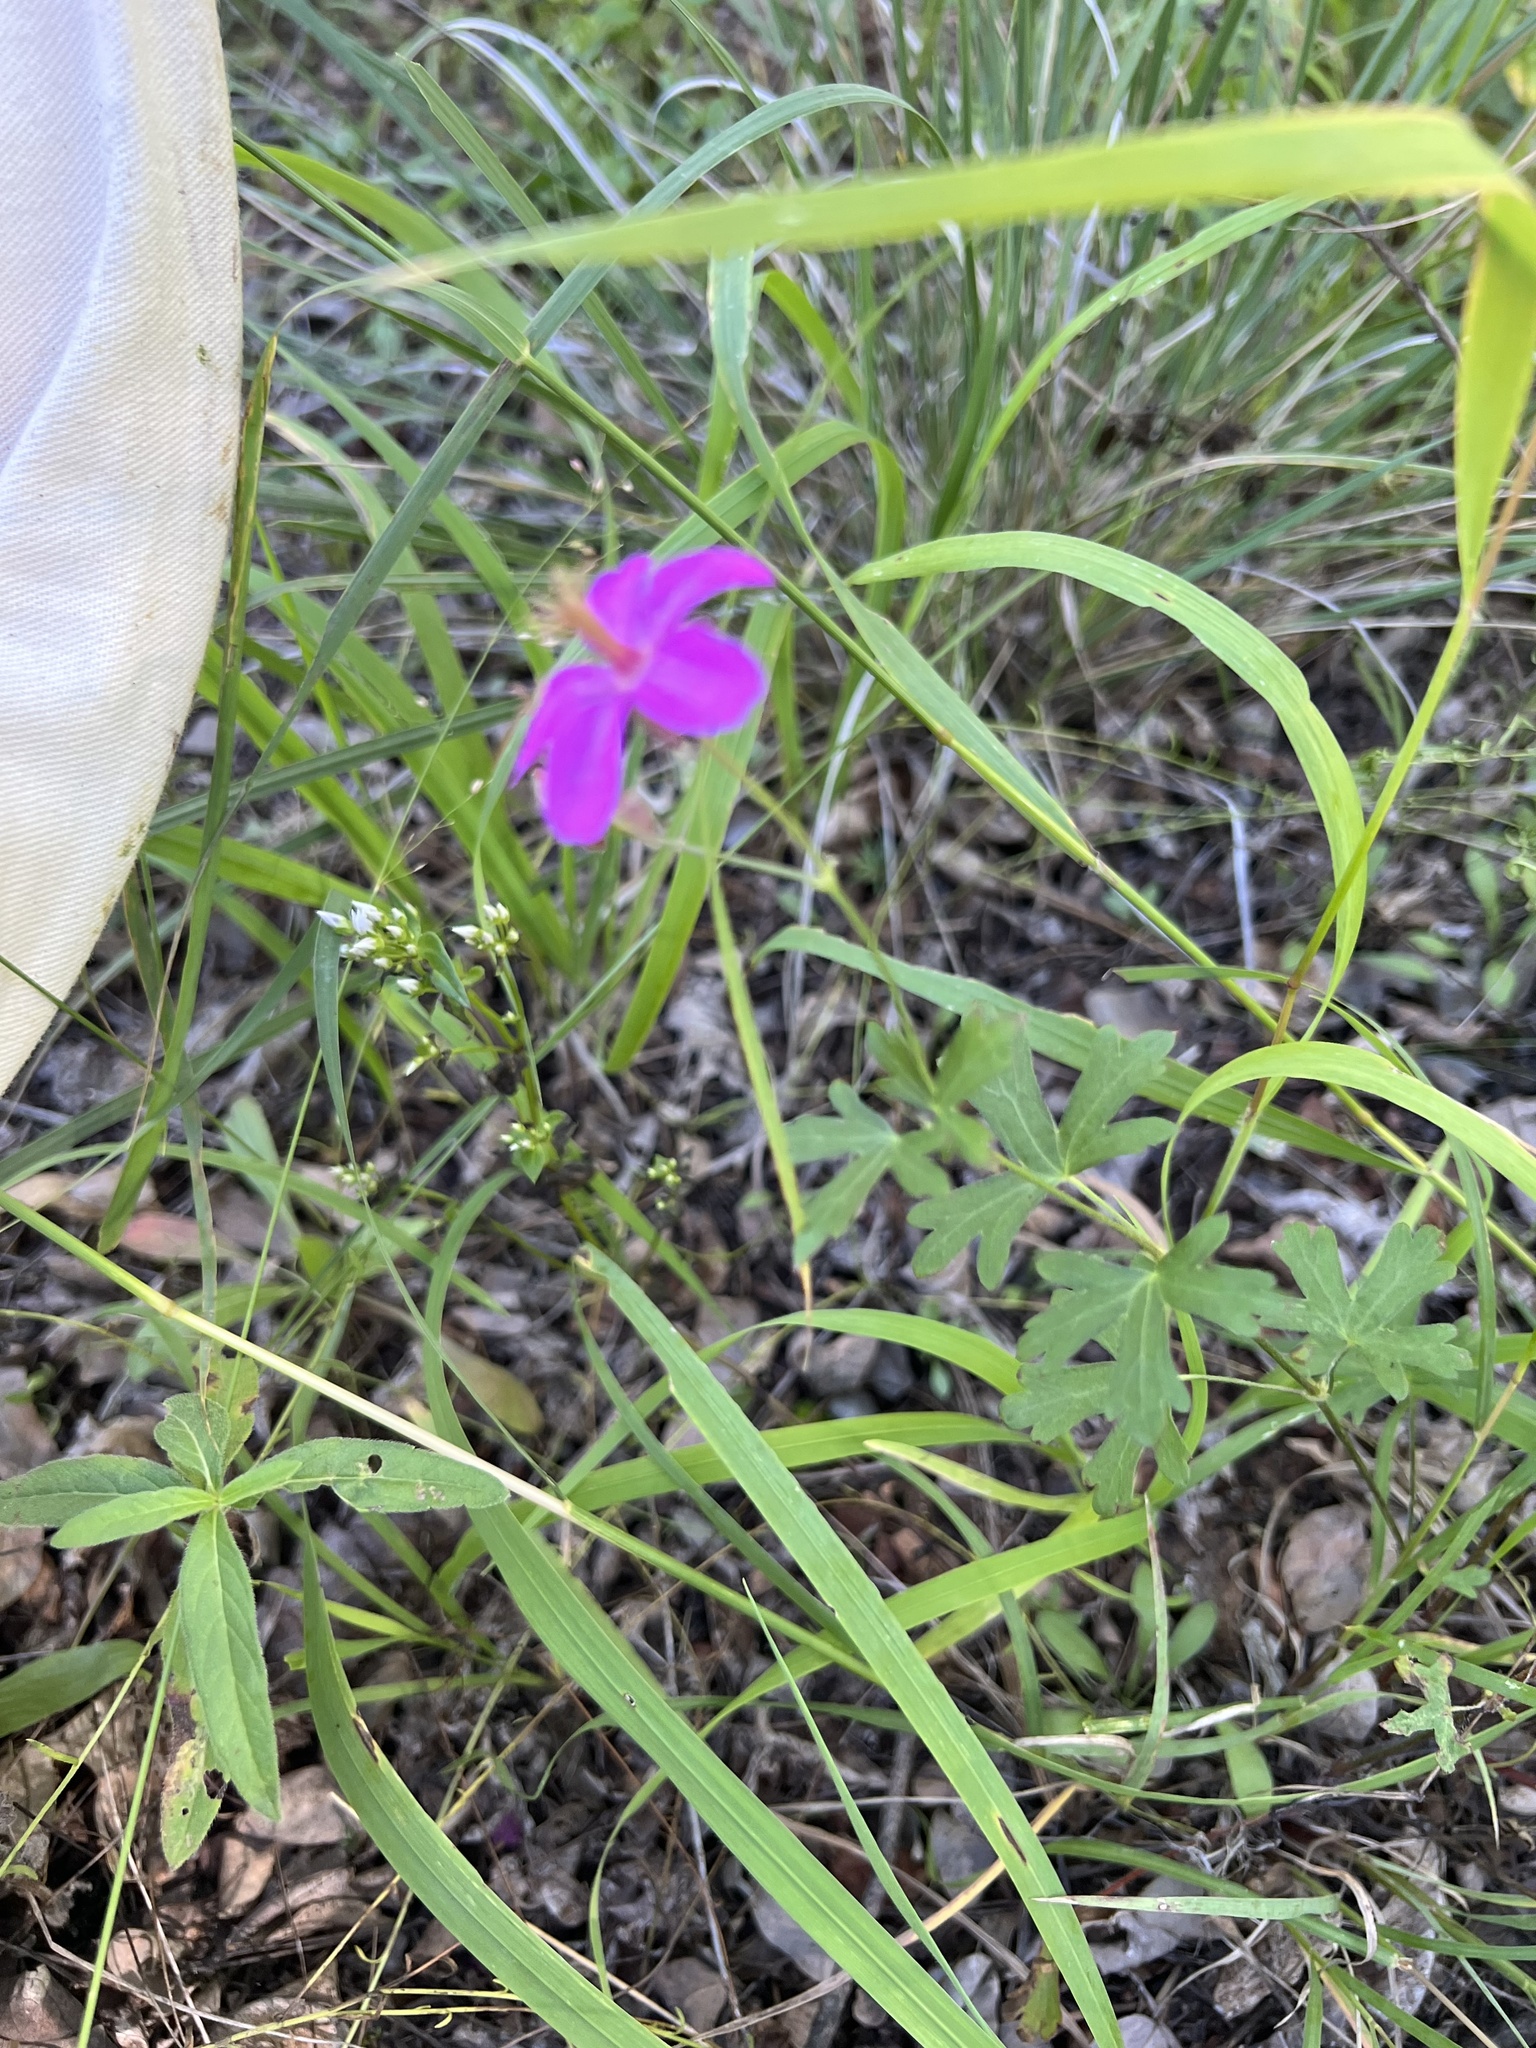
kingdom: Plantae
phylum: Tracheophyta
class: Magnoliopsida
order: Geraniales
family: Geraniaceae
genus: Geranium
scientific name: Geranium caespitosum
